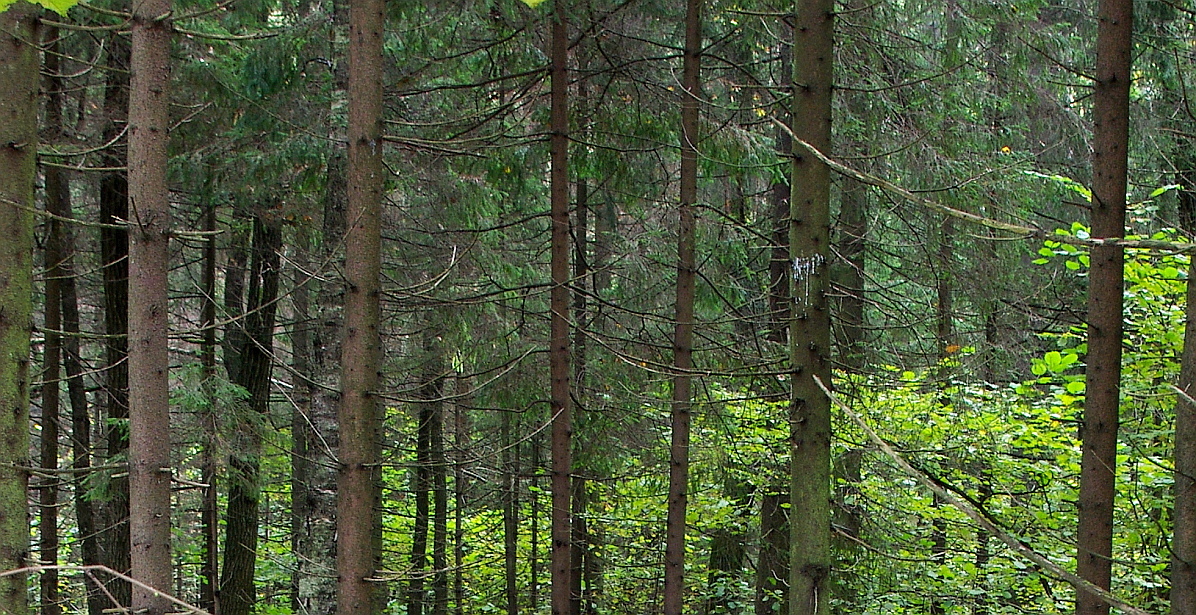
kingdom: Plantae
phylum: Tracheophyta
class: Pinopsida
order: Pinales
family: Pinaceae
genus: Picea
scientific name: Picea abies
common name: Norway spruce
